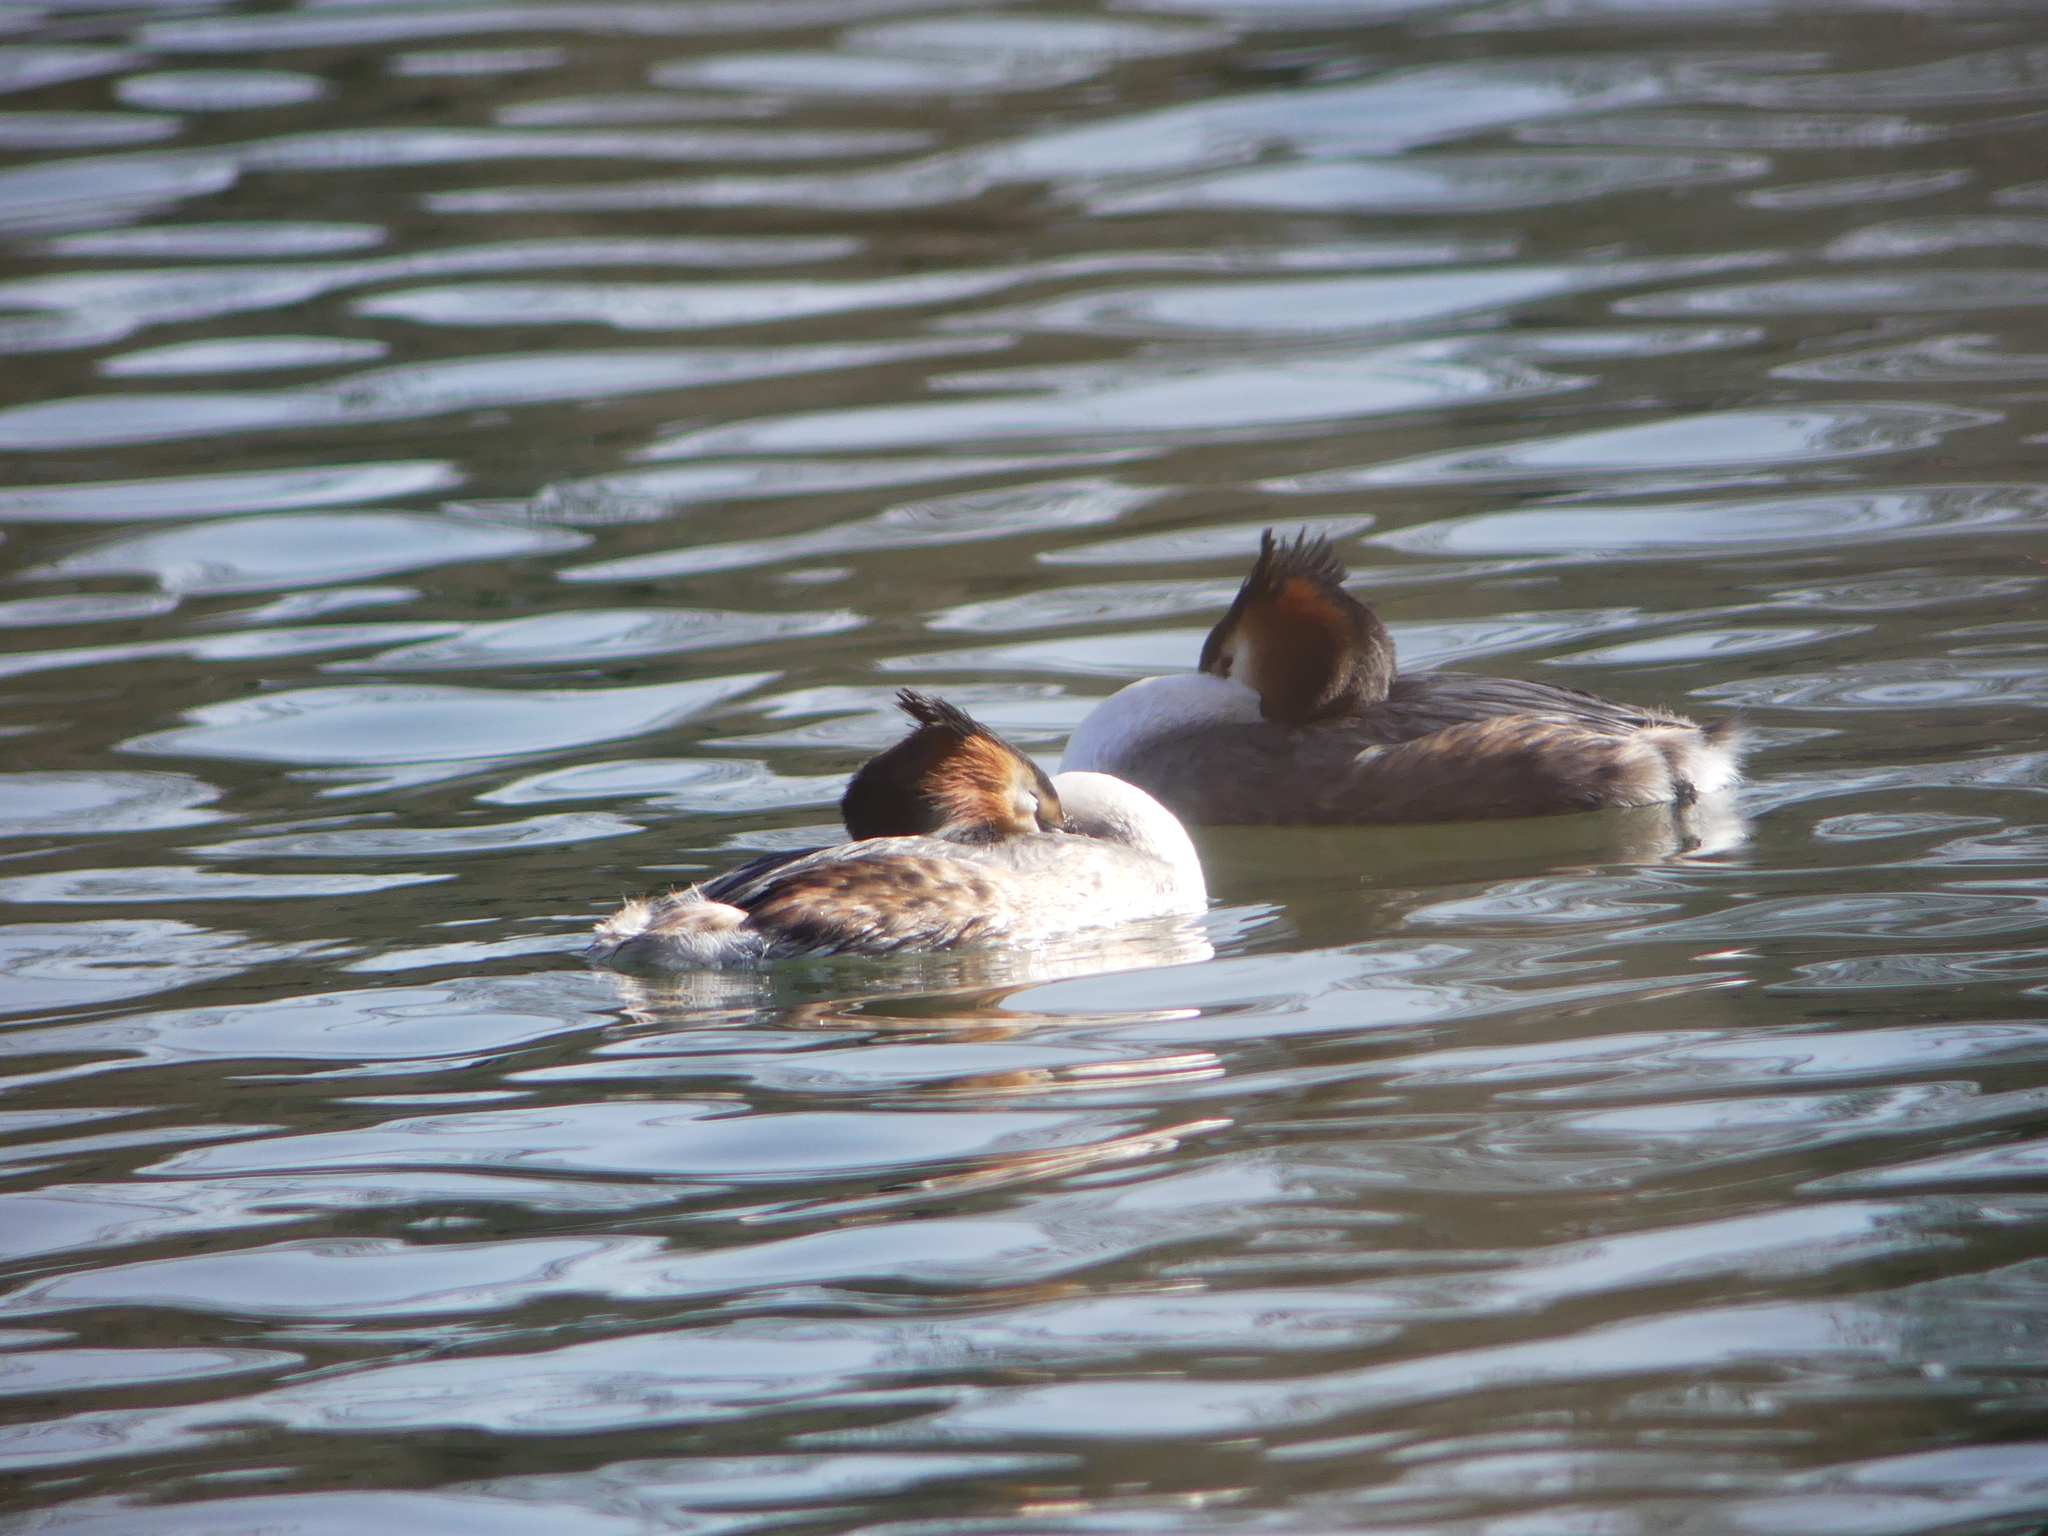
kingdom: Animalia
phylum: Chordata
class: Aves
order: Podicipediformes
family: Podicipedidae
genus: Podiceps
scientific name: Podiceps cristatus
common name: Great crested grebe
